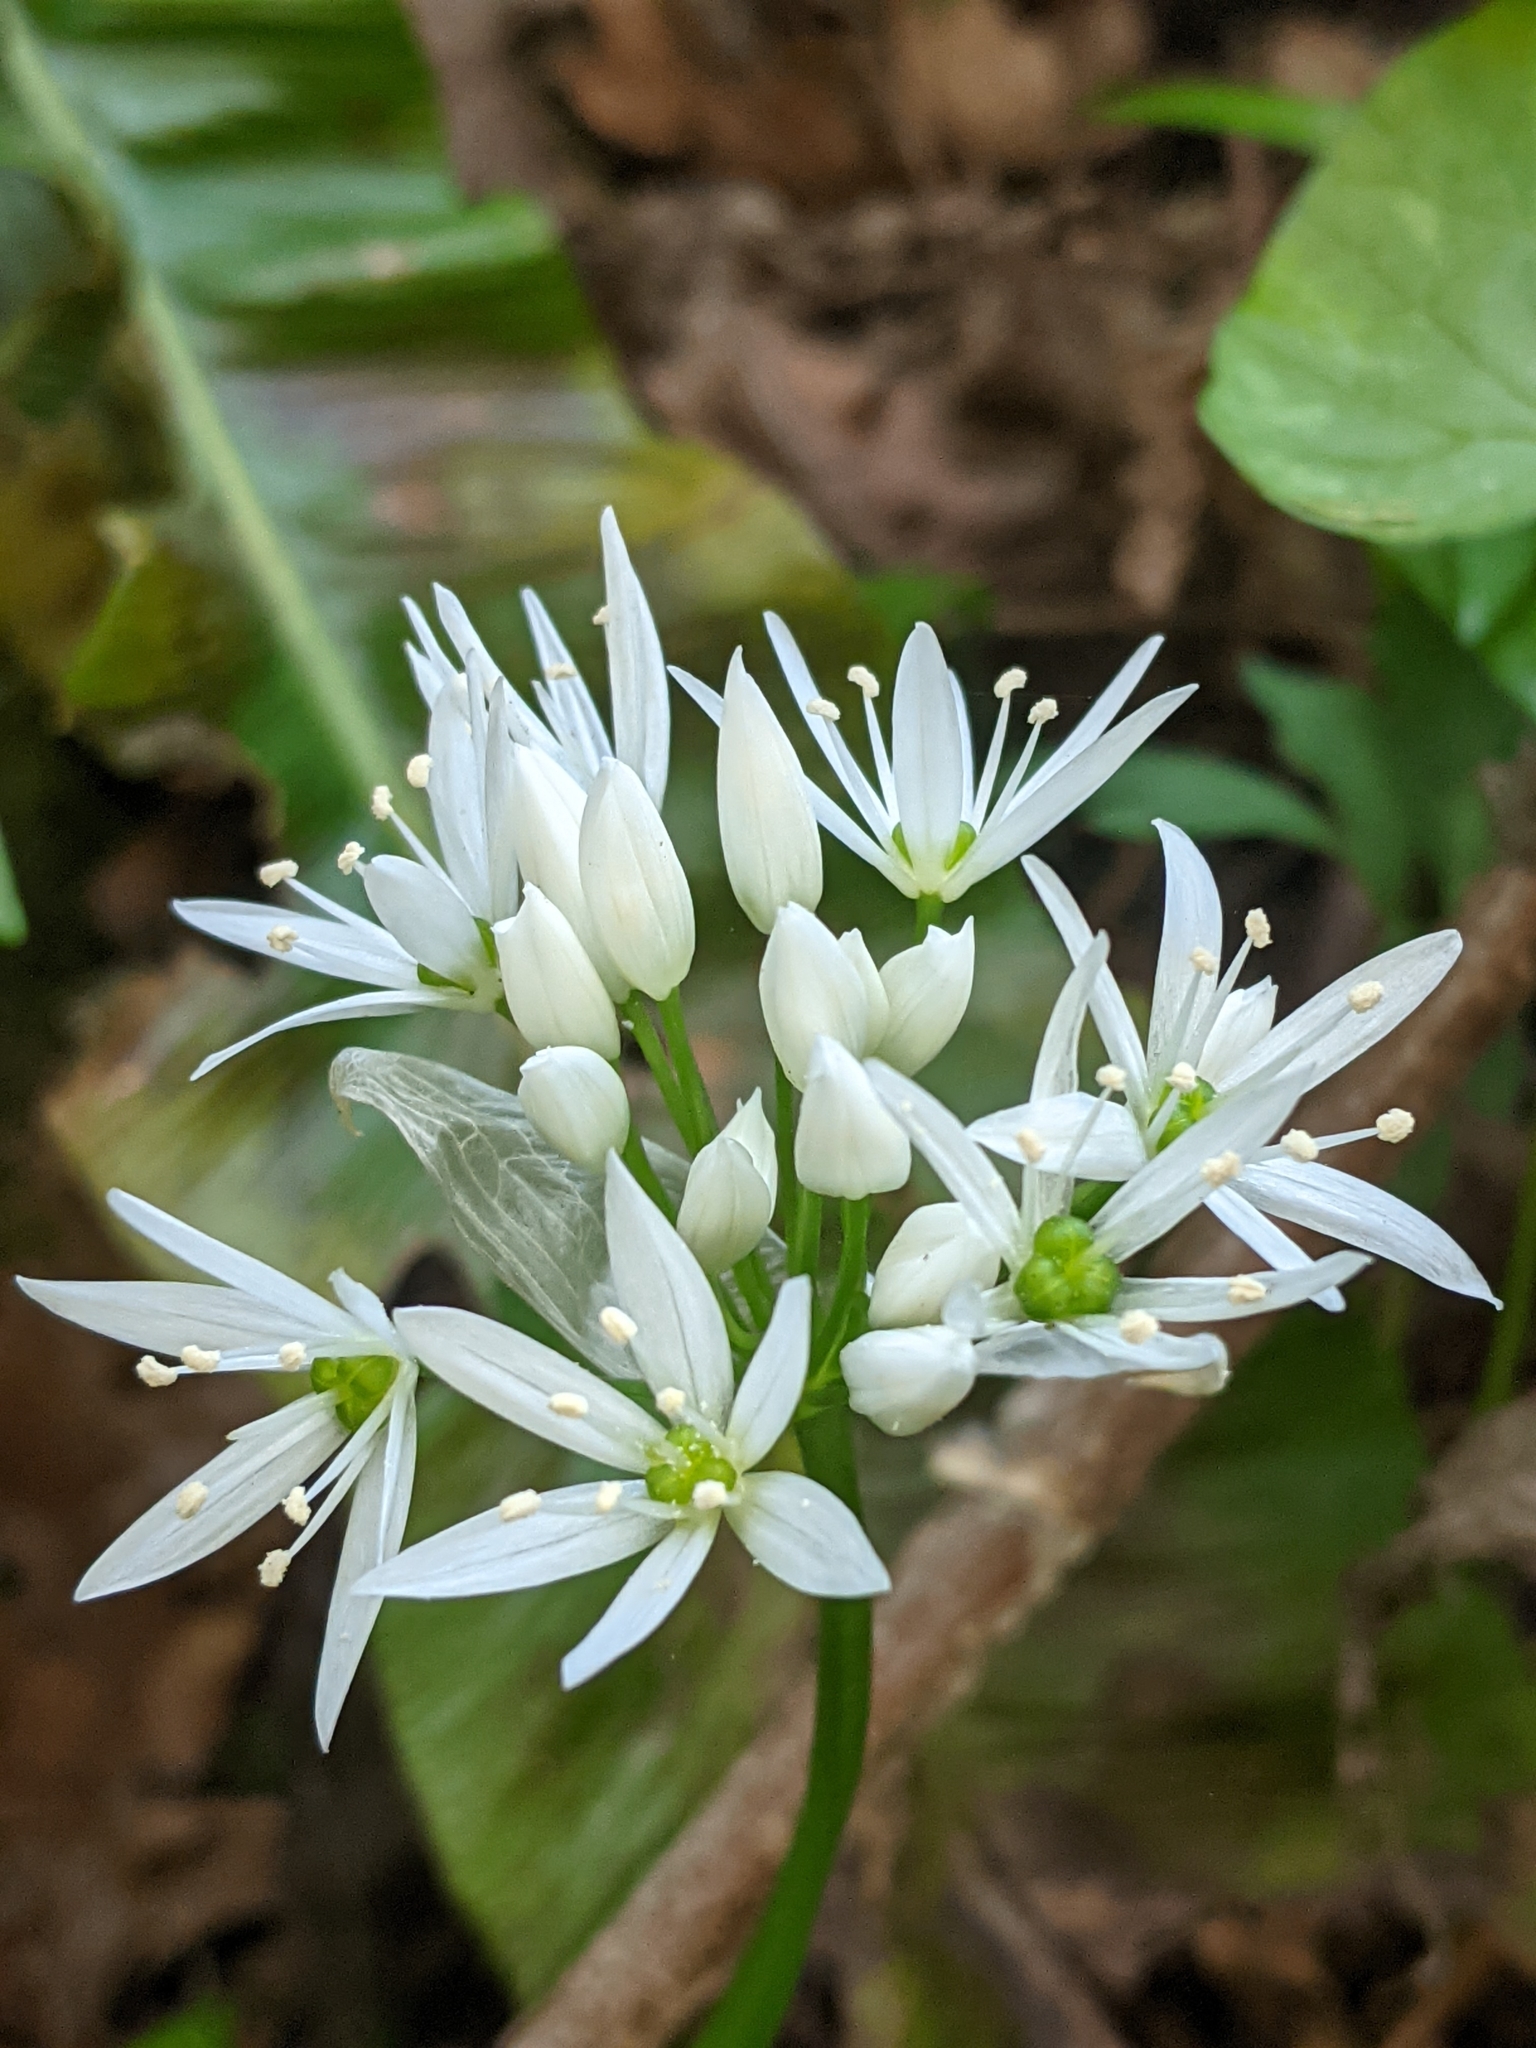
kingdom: Plantae
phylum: Tracheophyta
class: Liliopsida
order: Asparagales
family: Amaryllidaceae
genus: Allium
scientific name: Allium ursinum
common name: Ramsons
